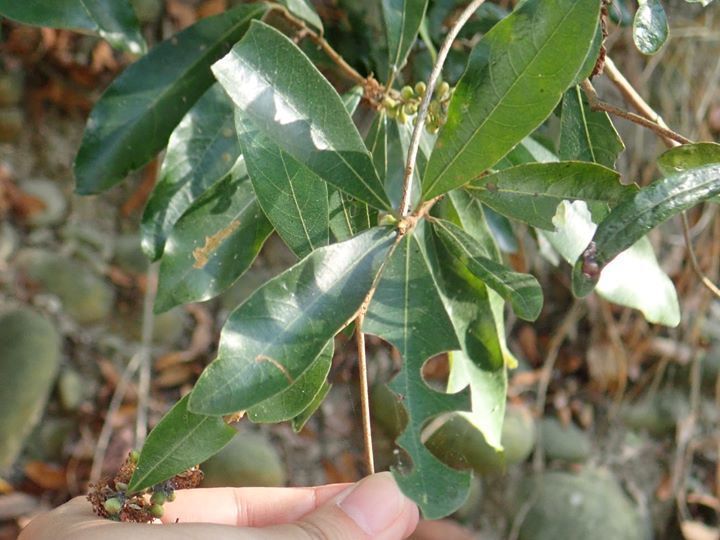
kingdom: Plantae
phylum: Tracheophyta
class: Magnoliopsida
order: Laurales
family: Lauraceae
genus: Litsea
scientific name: Litsea hypophaea
